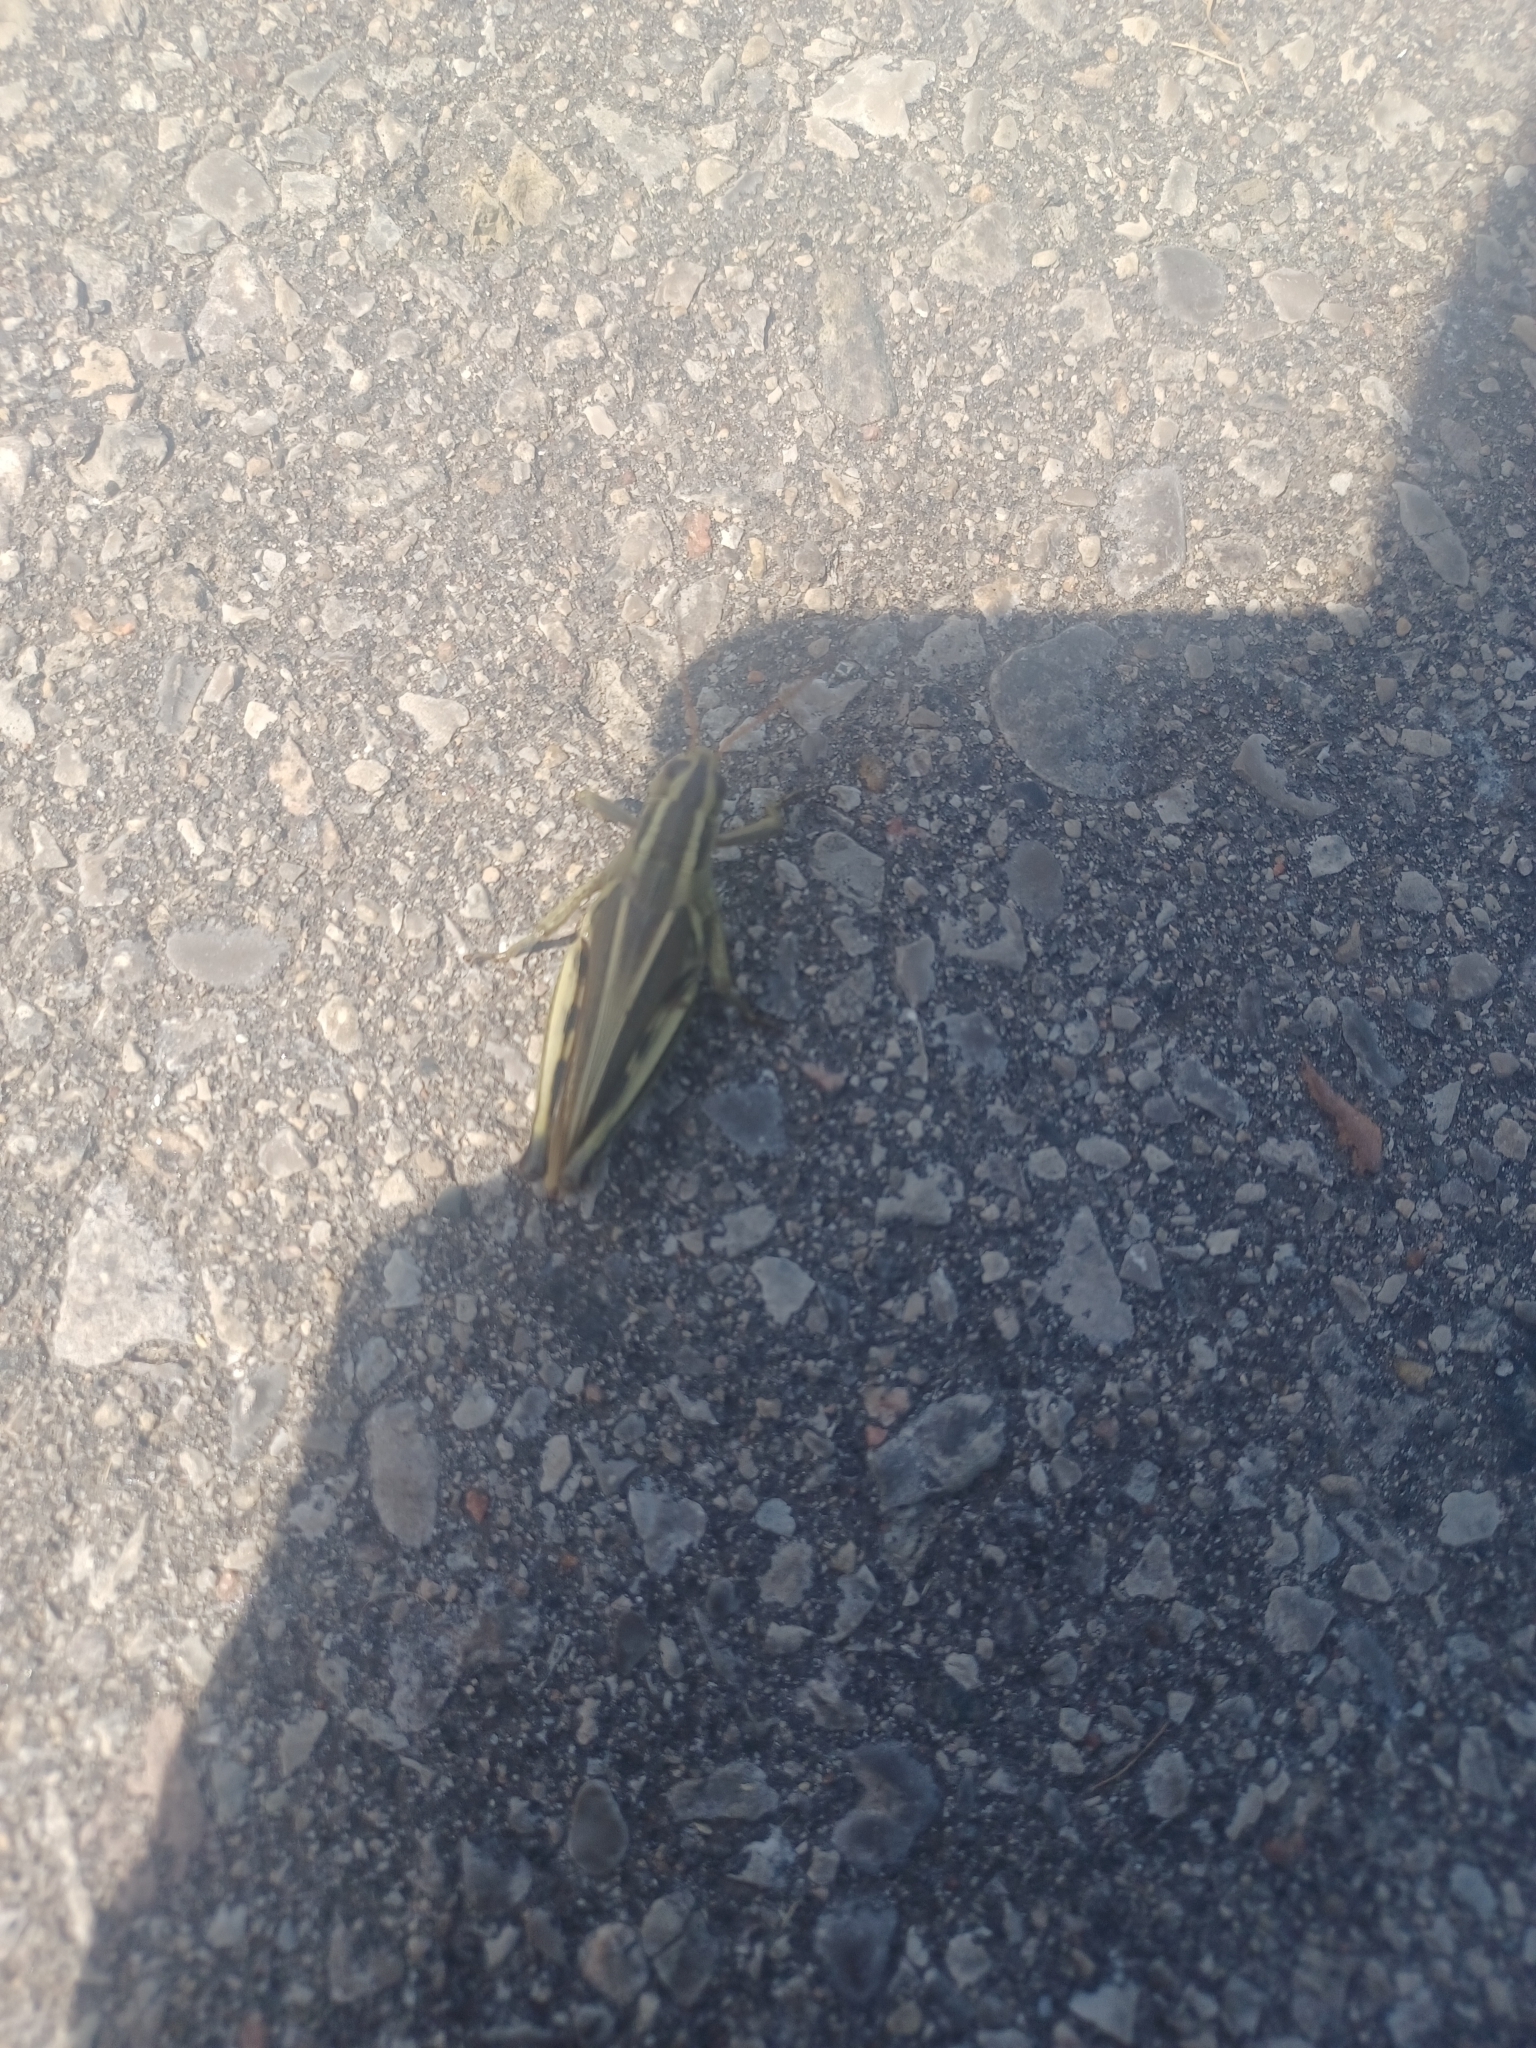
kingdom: Animalia
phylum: Arthropoda
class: Insecta
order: Orthoptera
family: Acrididae
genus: Melanoplus
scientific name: Melanoplus bivittatus
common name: Two-striped grasshopper
